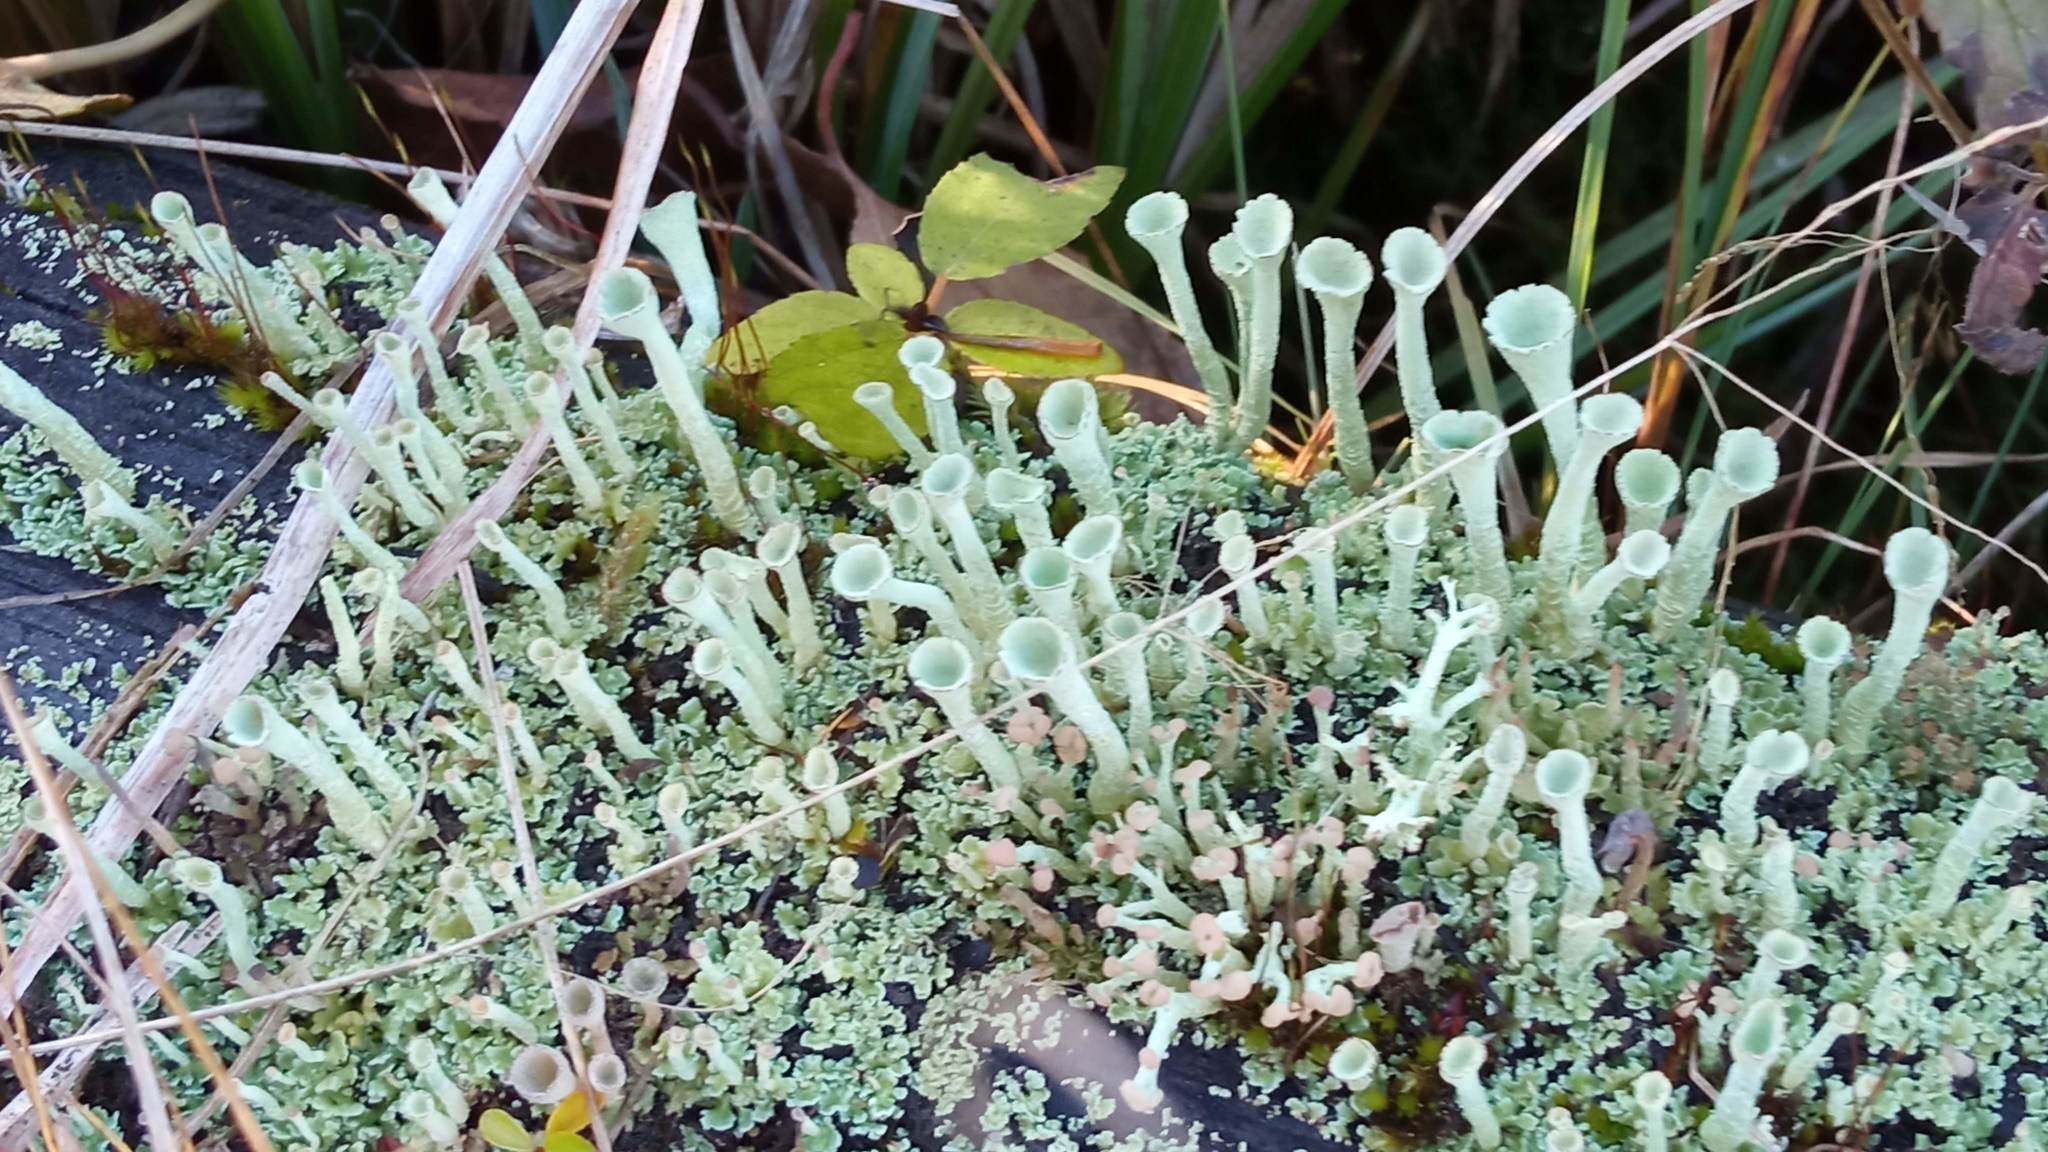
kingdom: Fungi
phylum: Ascomycota
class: Lecanoromycetes
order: Lecanorales
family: Cladoniaceae
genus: Cladonia
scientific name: Cladonia fimbriata
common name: Powdered trumpet lichen
